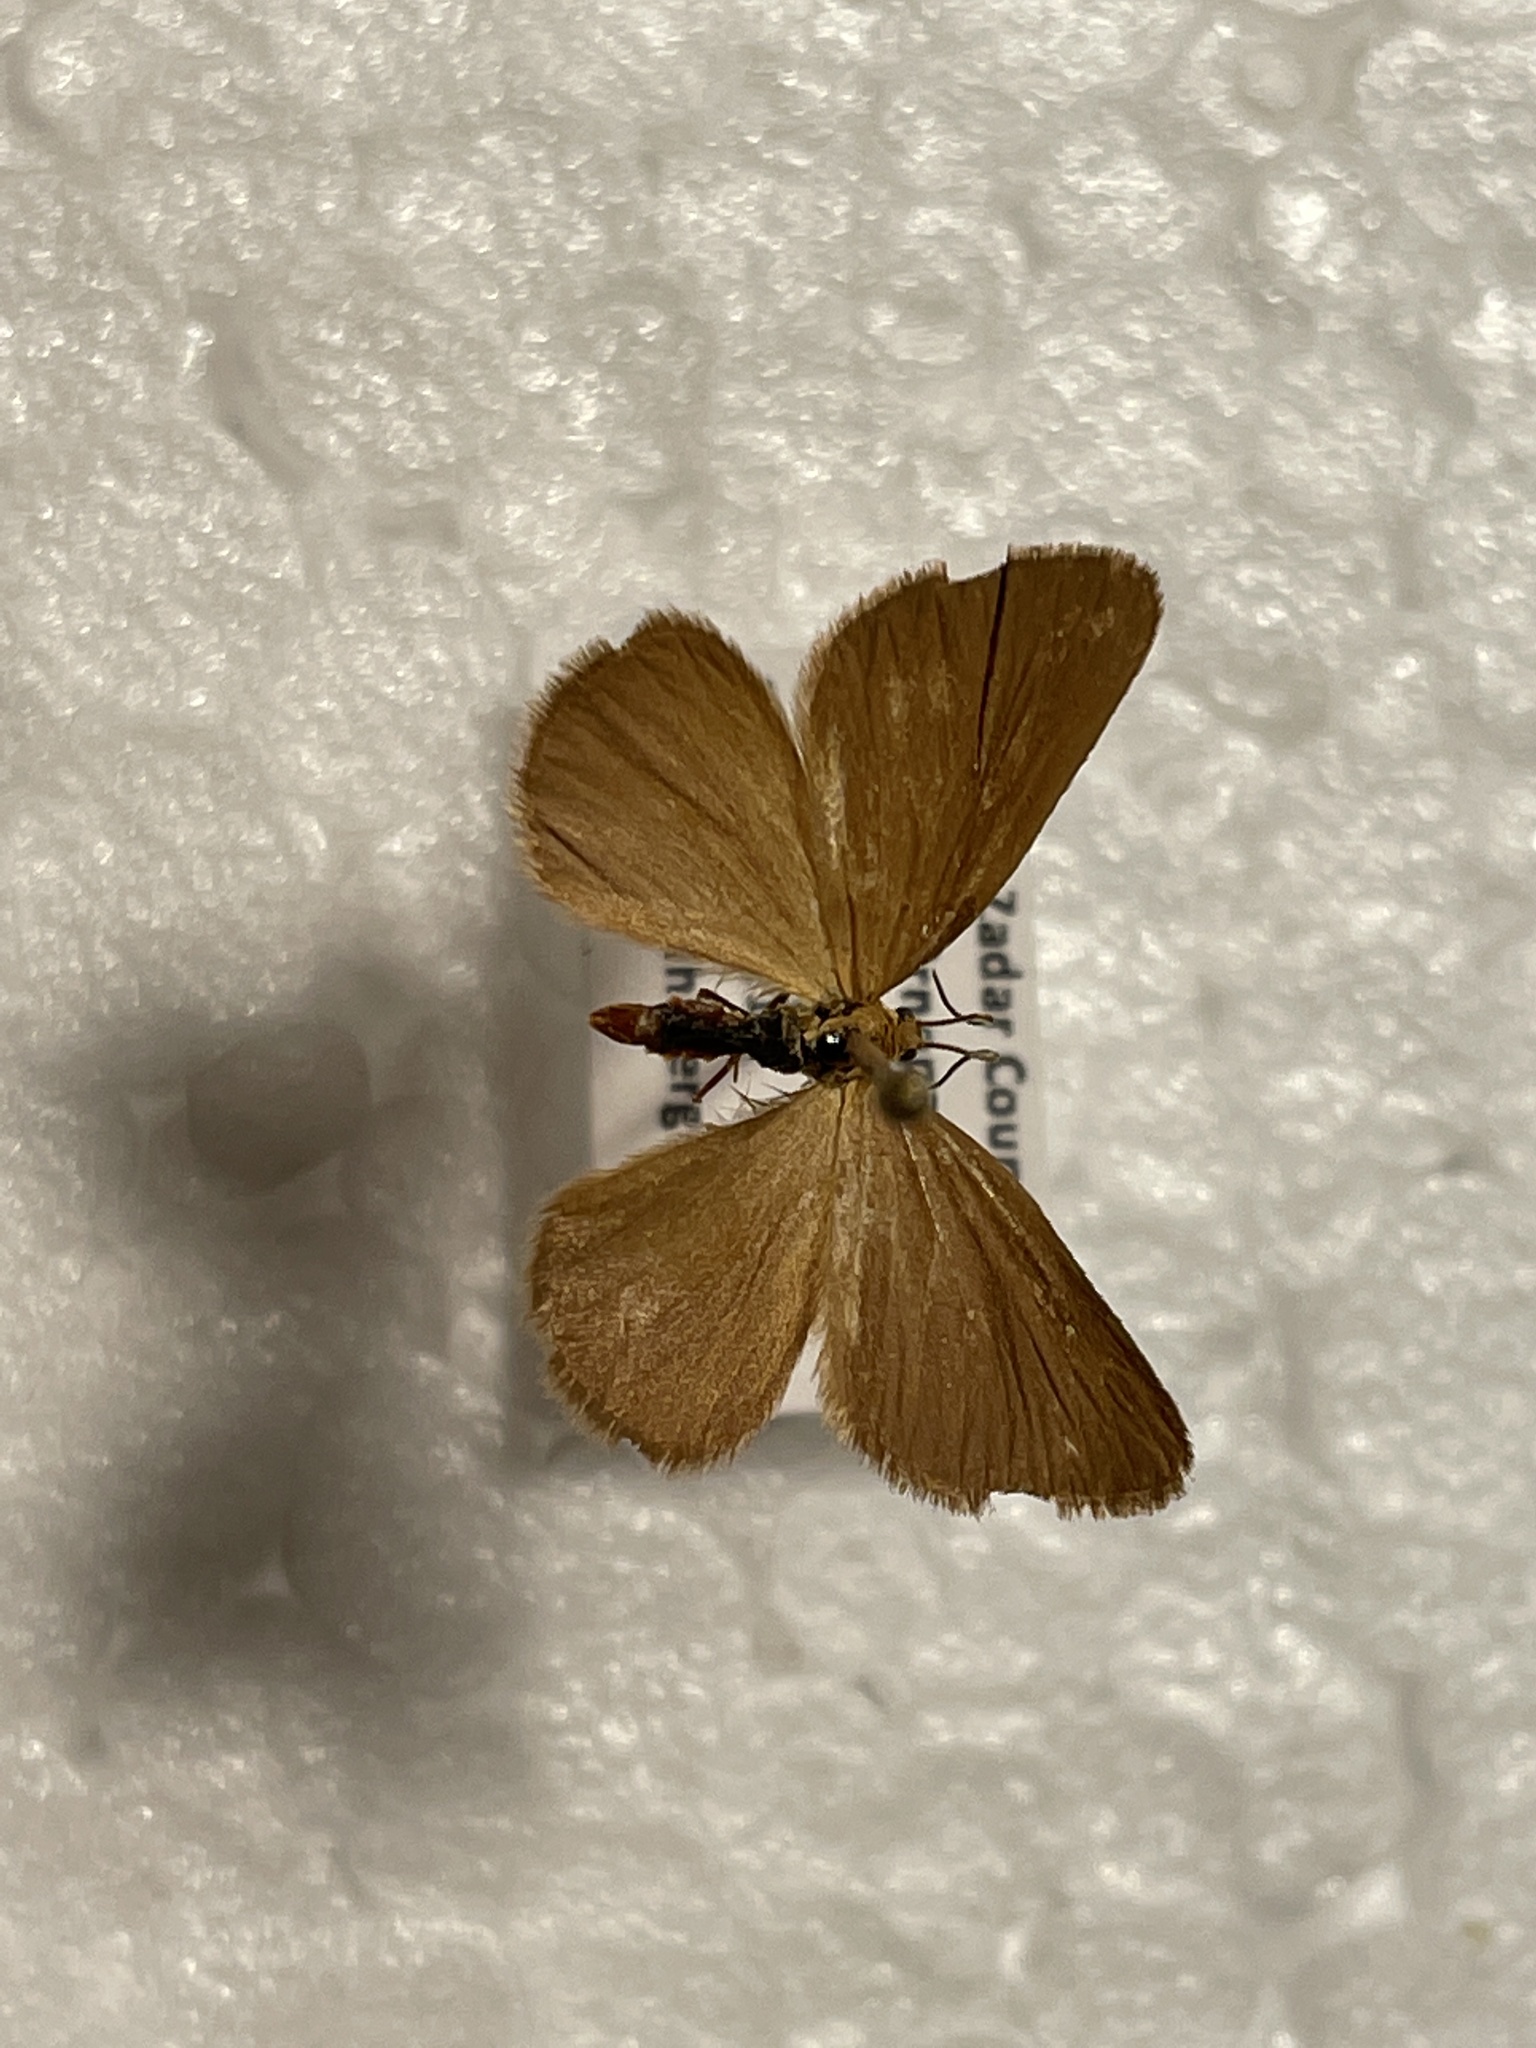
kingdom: Animalia
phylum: Arthropoda
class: Insecta
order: Lepidoptera
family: Geometridae
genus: Minoa
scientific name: Minoa murinata
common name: Drab looper
